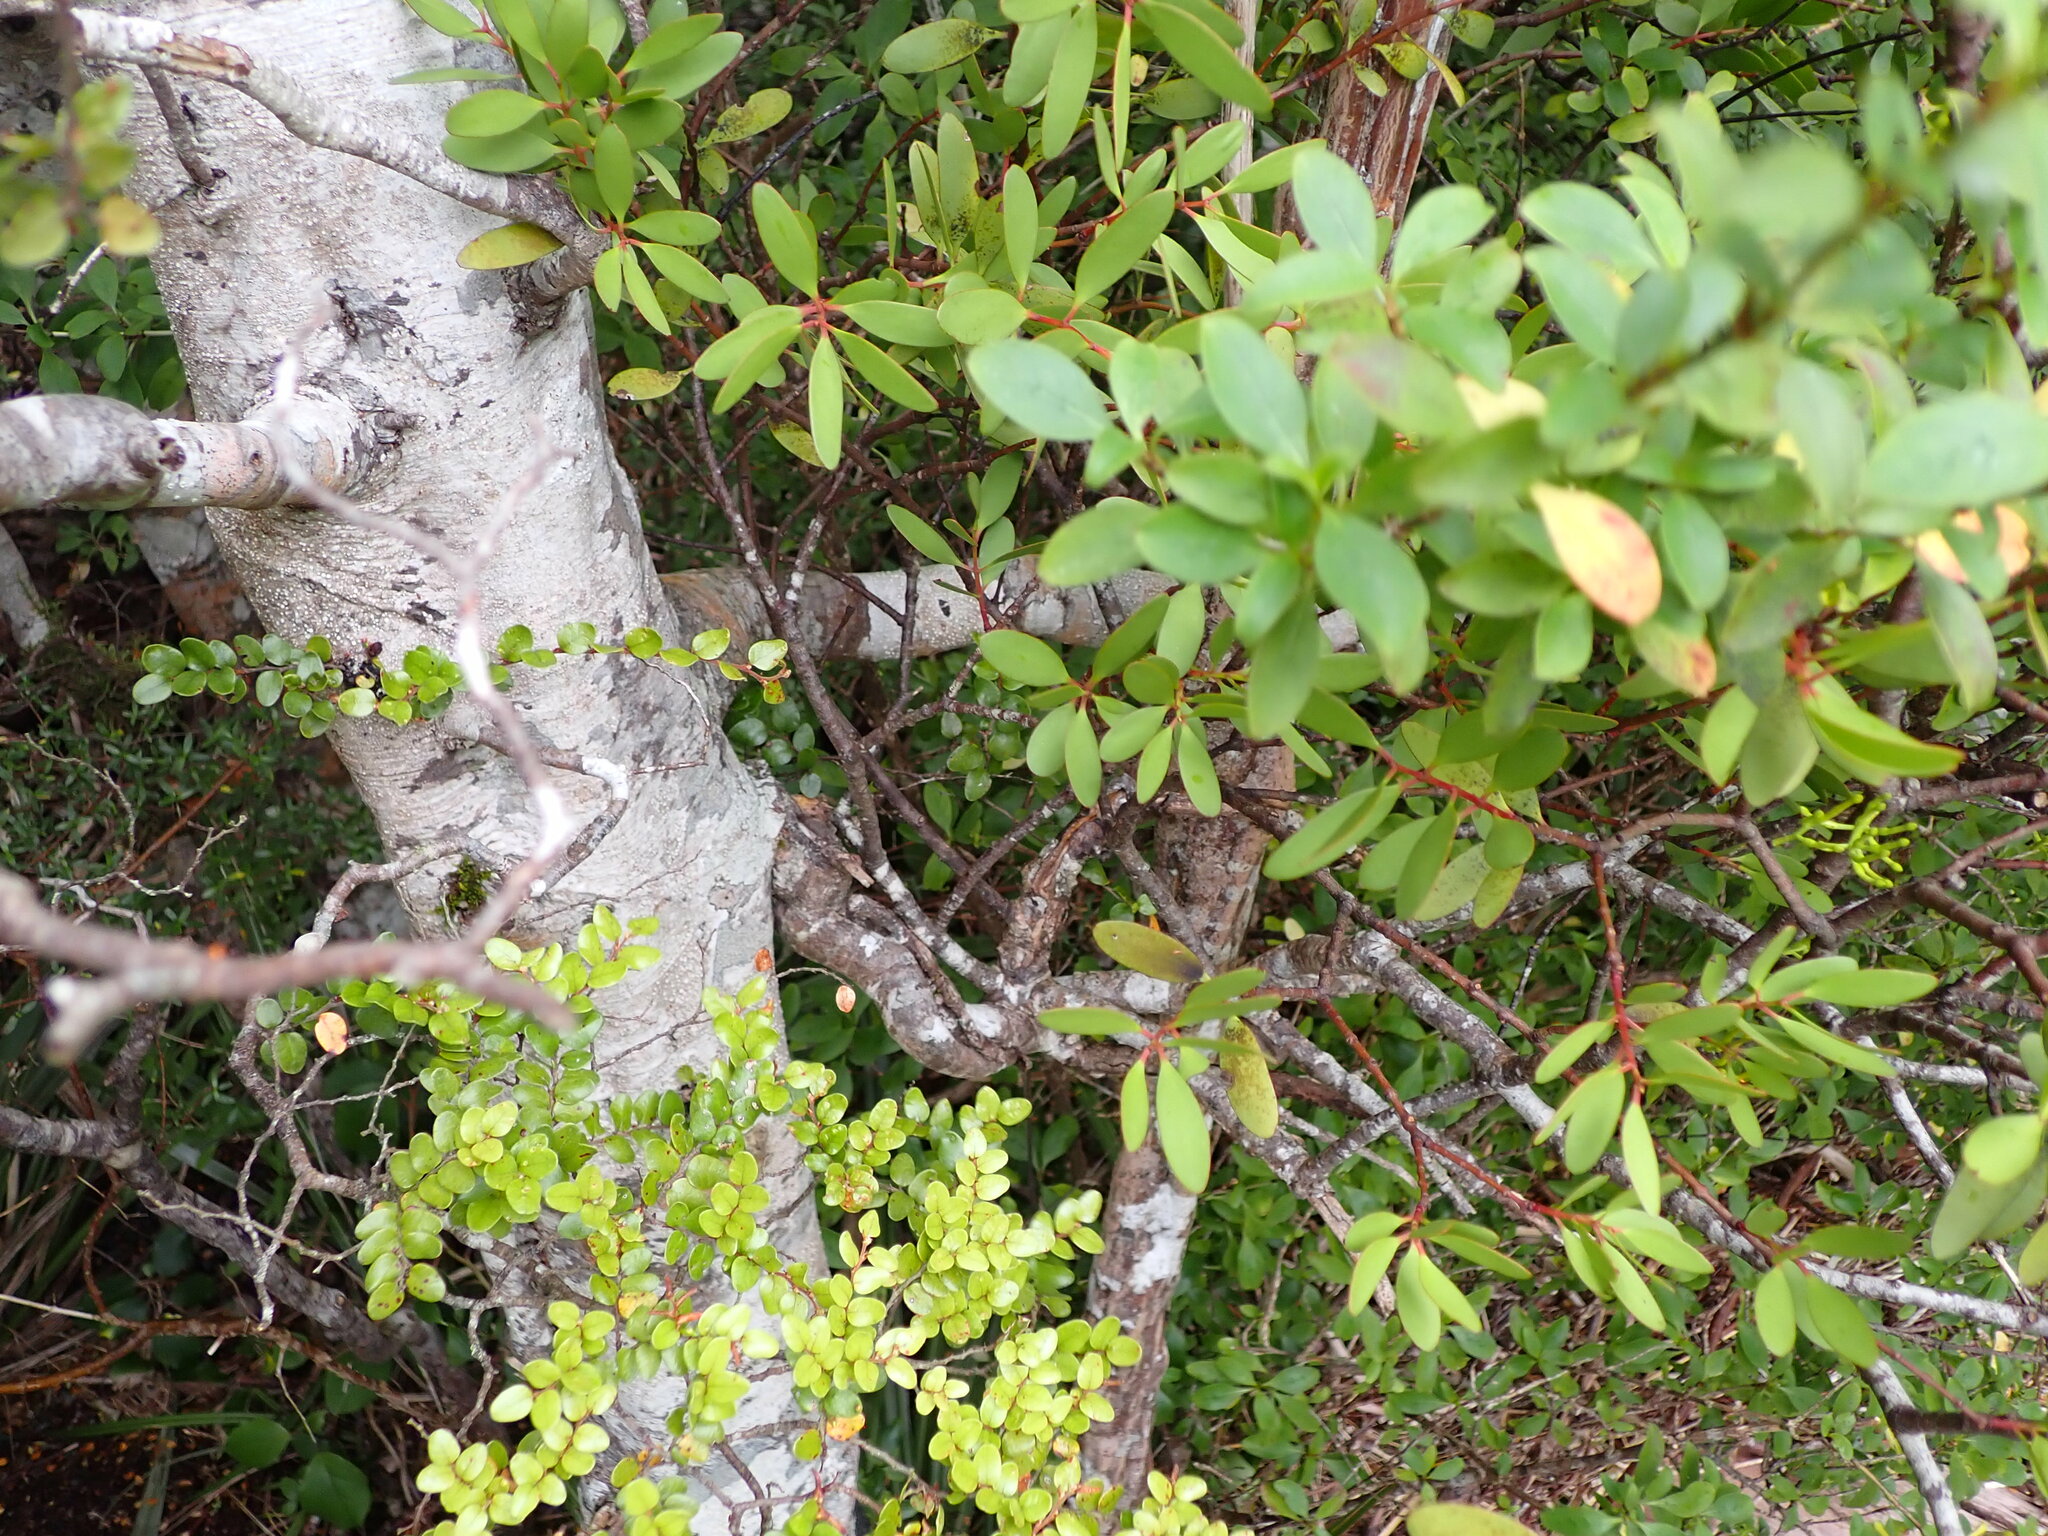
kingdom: Plantae
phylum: Tracheophyta
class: Magnoliopsida
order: Santalales
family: Loranthaceae
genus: Alepis
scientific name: Alepis flavida
